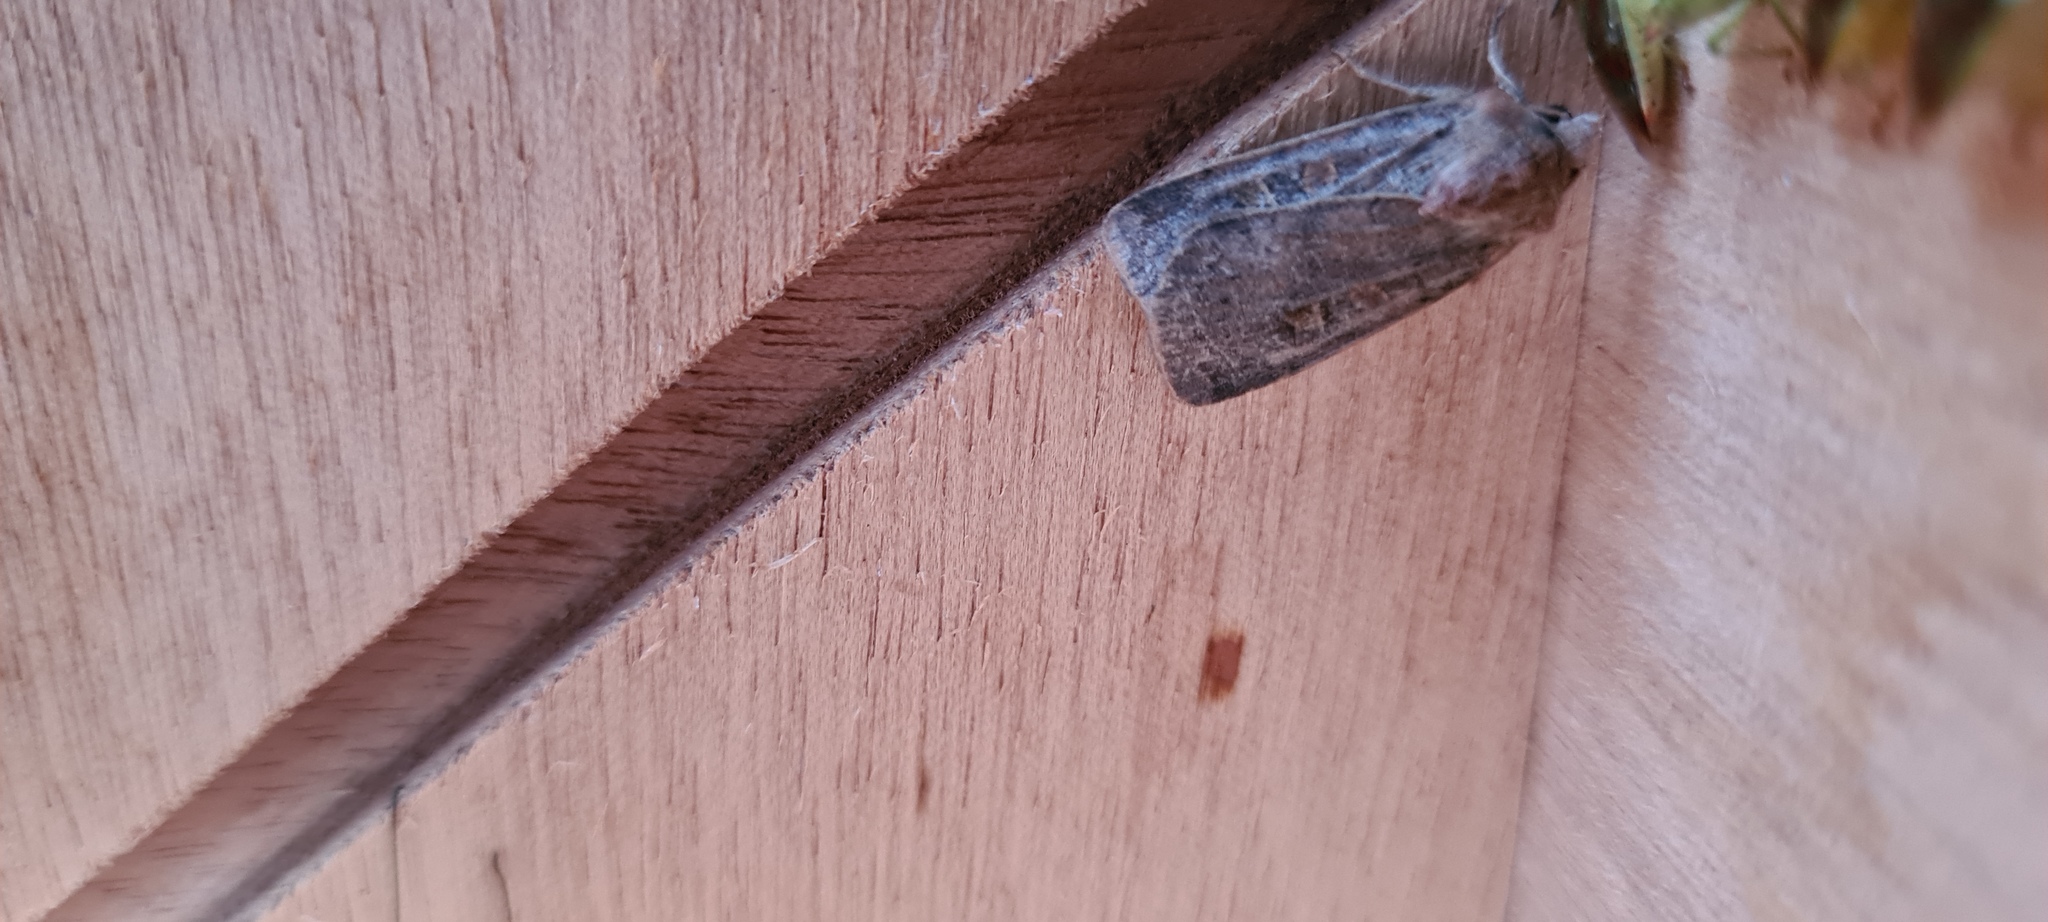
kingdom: Animalia
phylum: Arthropoda
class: Insecta
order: Lepidoptera
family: Noctuidae
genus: Xestia
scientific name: Xestia xanthographa
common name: Square-spot rustic
